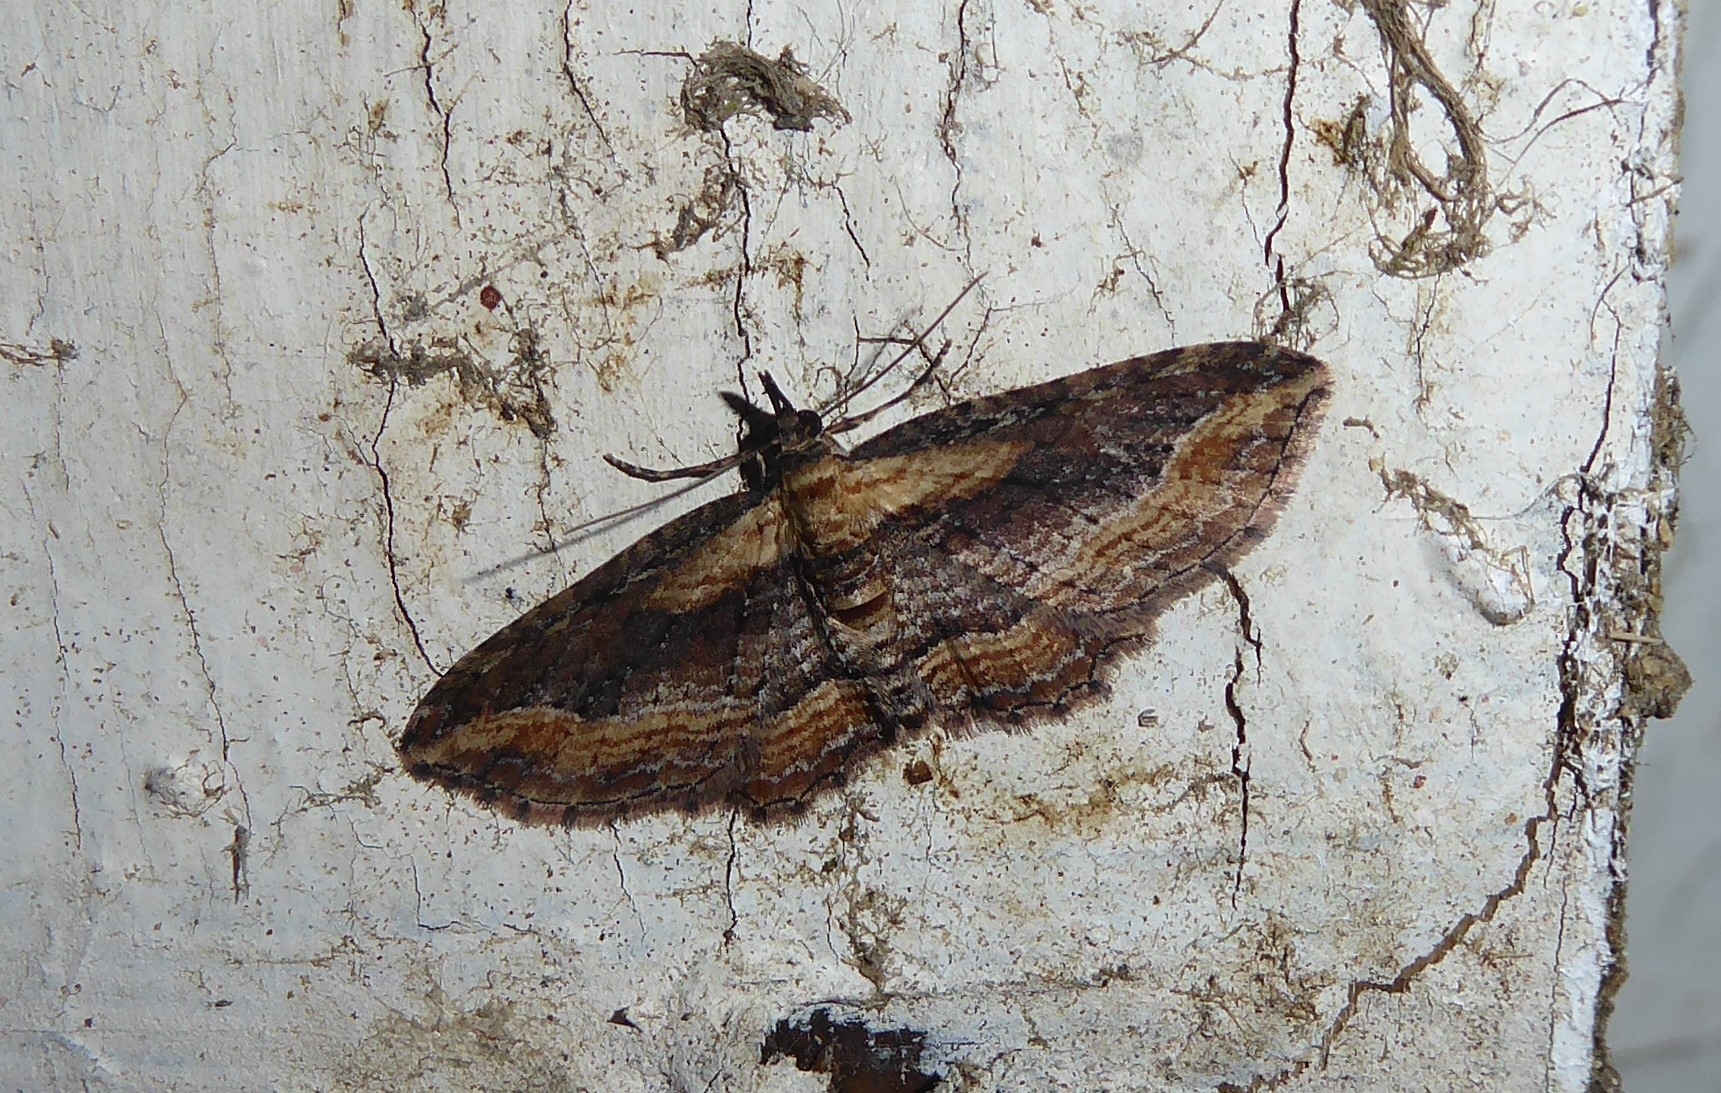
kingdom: Animalia
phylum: Arthropoda
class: Insecta
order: Lepidoptera
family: Geometridae
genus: Chloroclystis
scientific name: Chloroclystis filata
